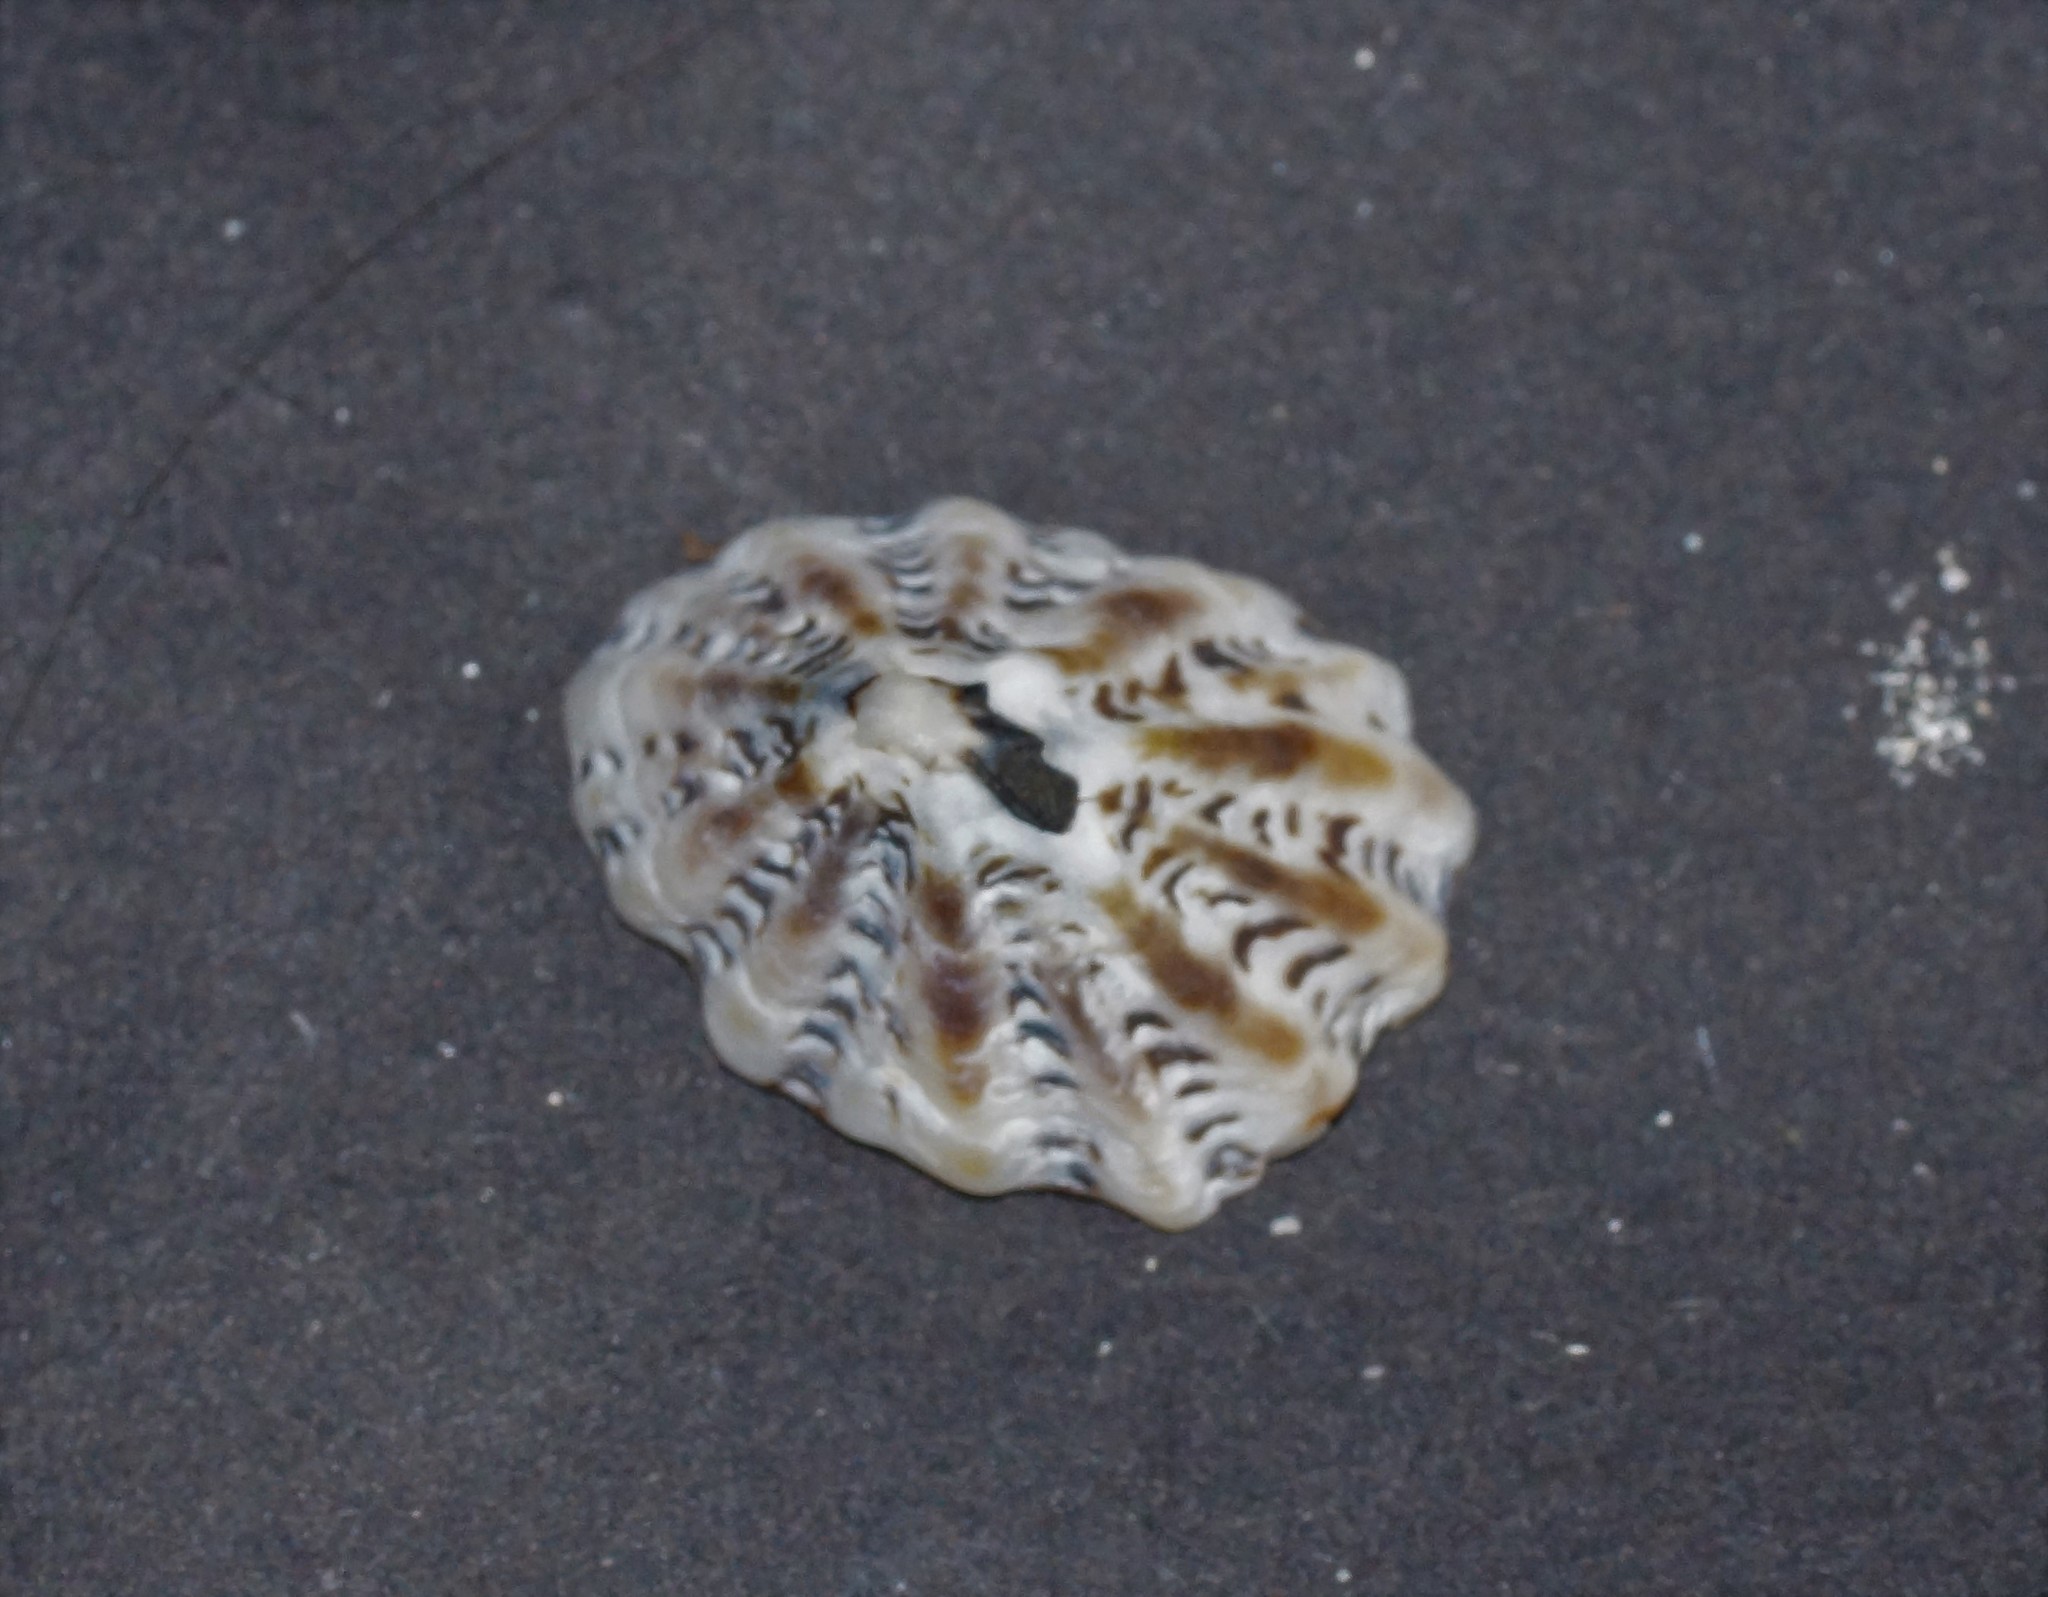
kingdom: Animalia
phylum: Mollusca
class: Gastropoda
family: Lottiidae
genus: Patelloida
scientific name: Patelloida alticostata
